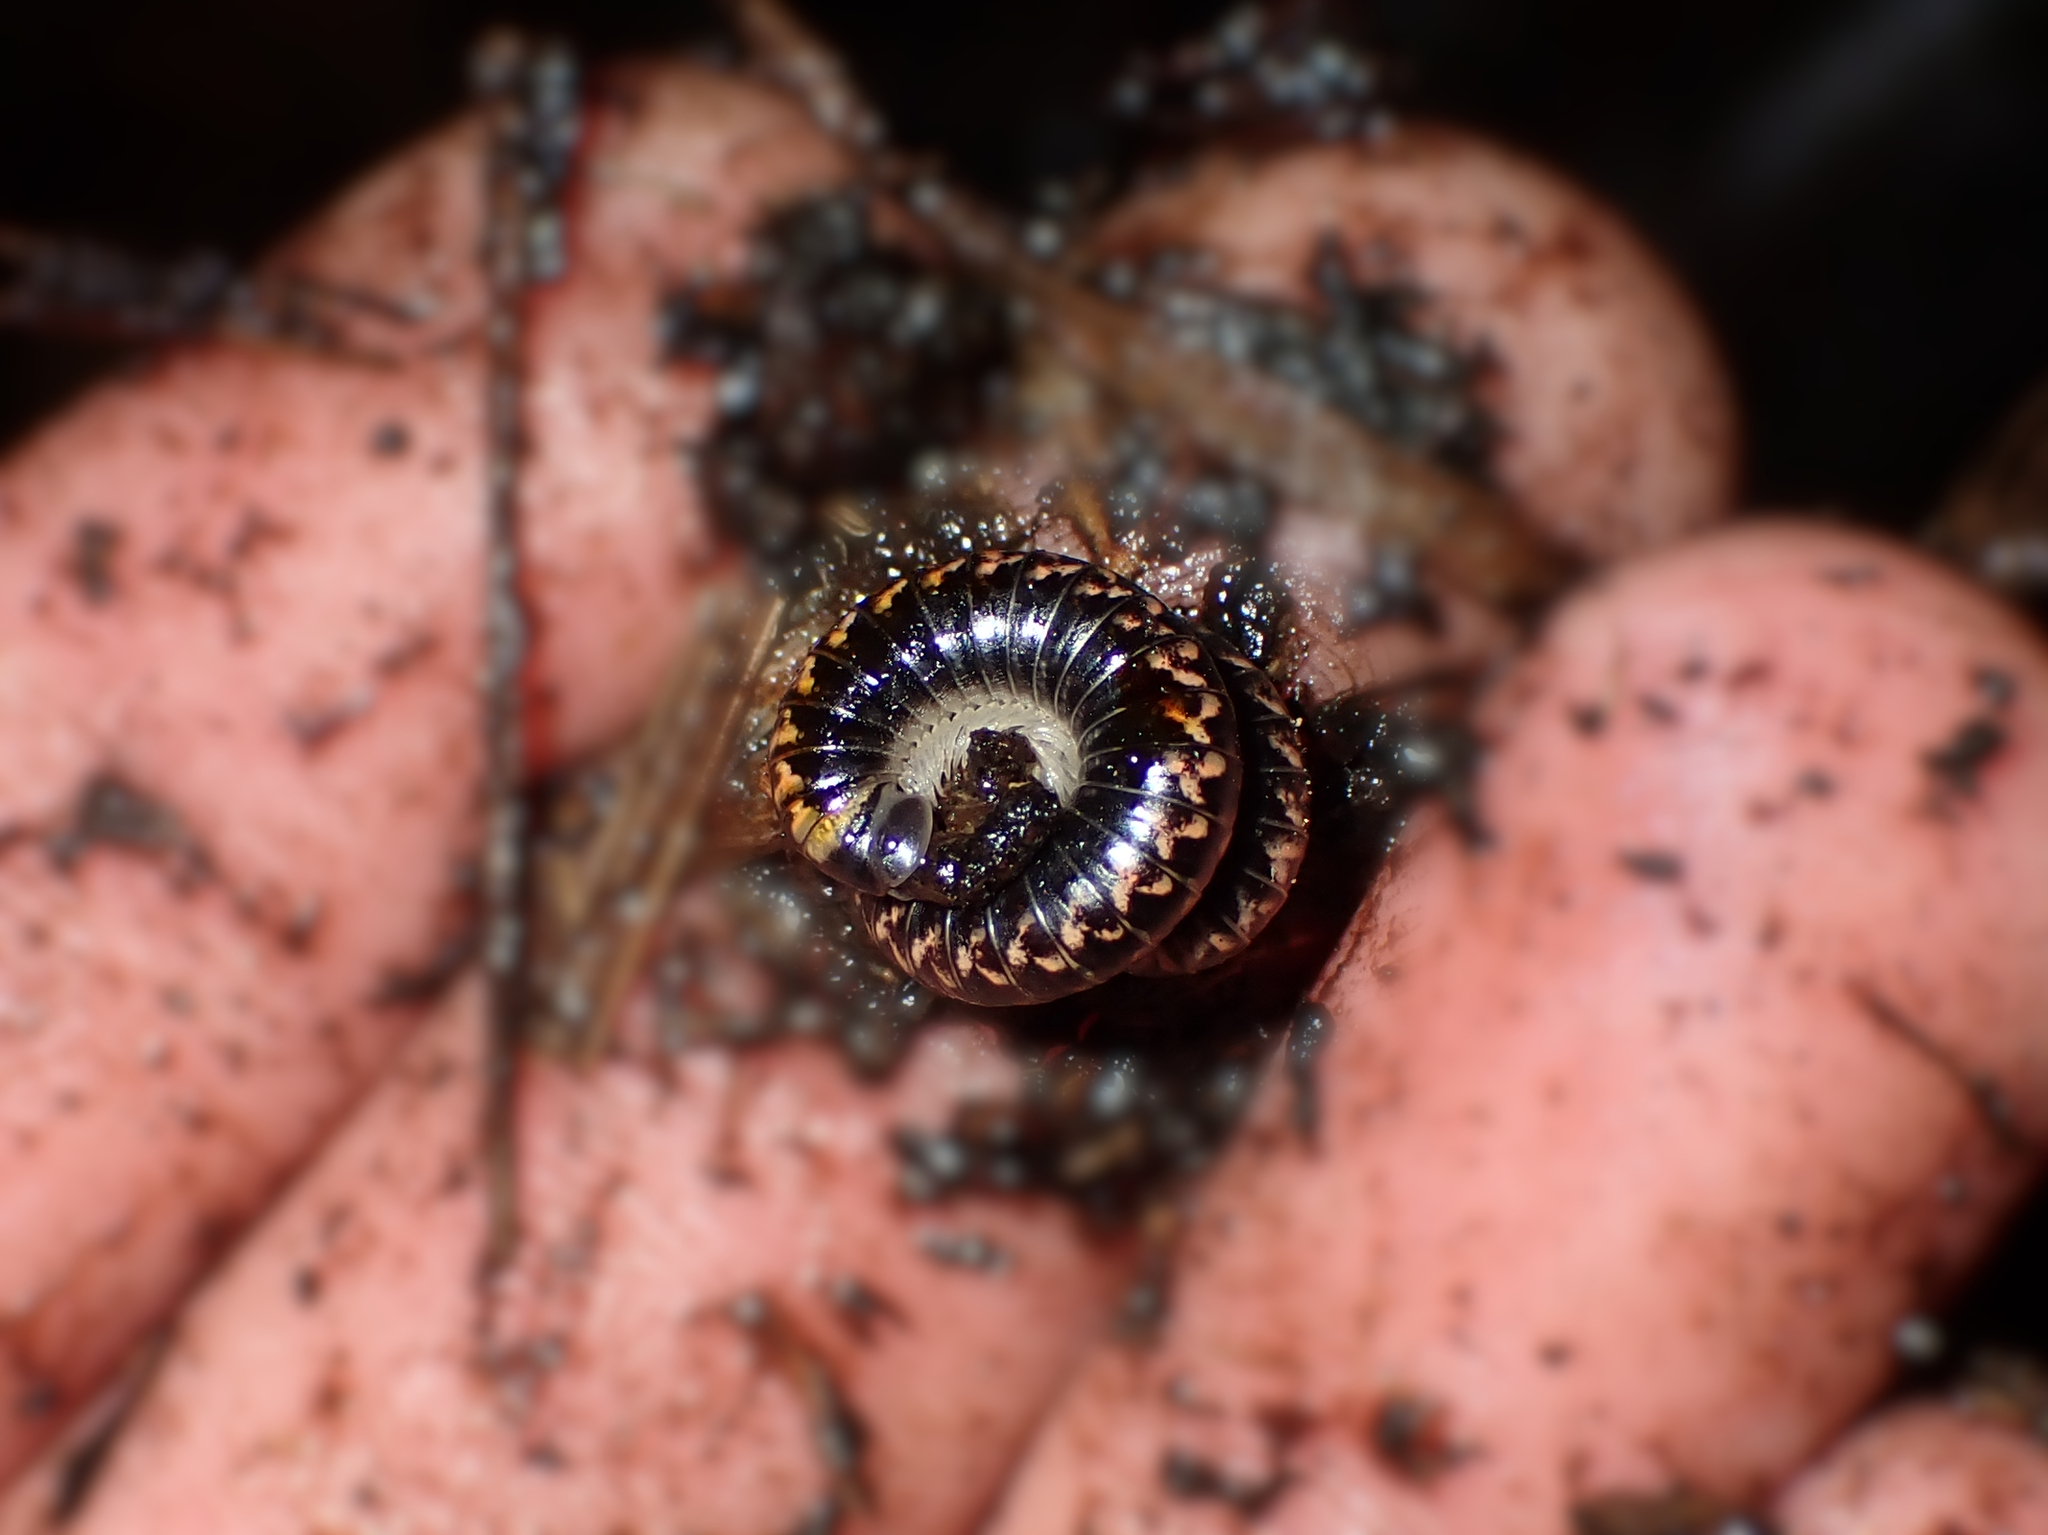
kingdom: Animalia
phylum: Arthropoda
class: Diplopoda
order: Spirobolida
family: Spirobolellidae
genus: Spirobolellus
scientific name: Spirobolellus antipodarum
